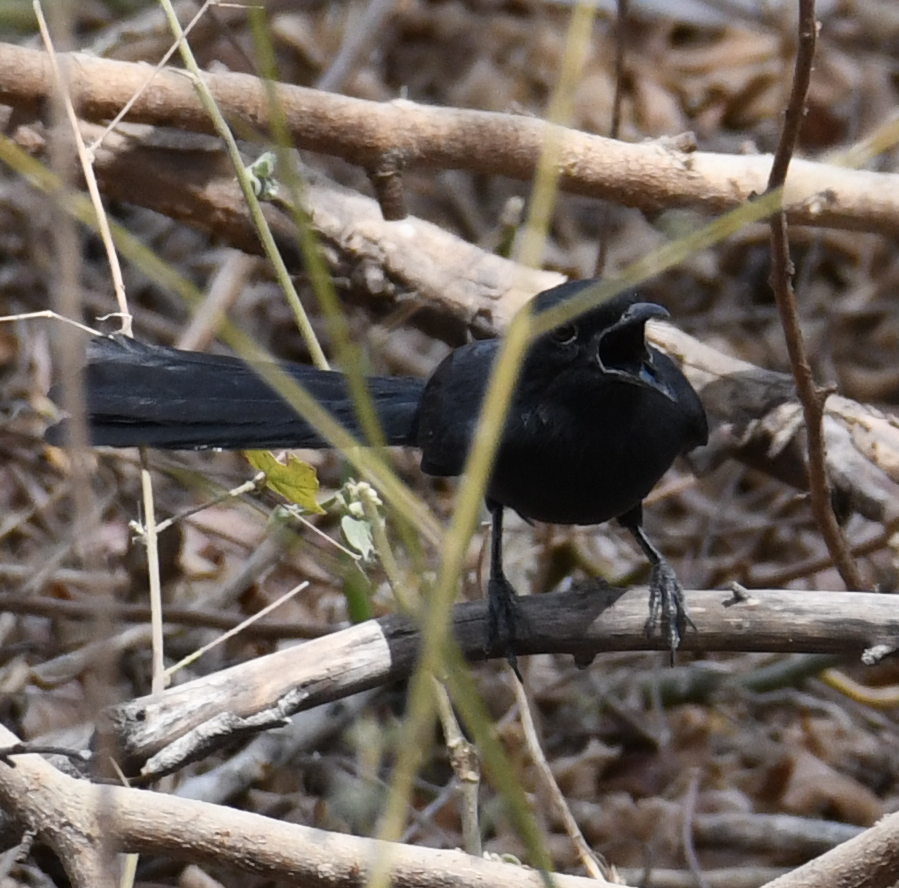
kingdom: Animalia
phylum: Chordata
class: Aves
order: Passeriformes
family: Muscicapidae
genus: Melaenornis
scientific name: Melaenornis edolioides
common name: Northern black flycatcher
